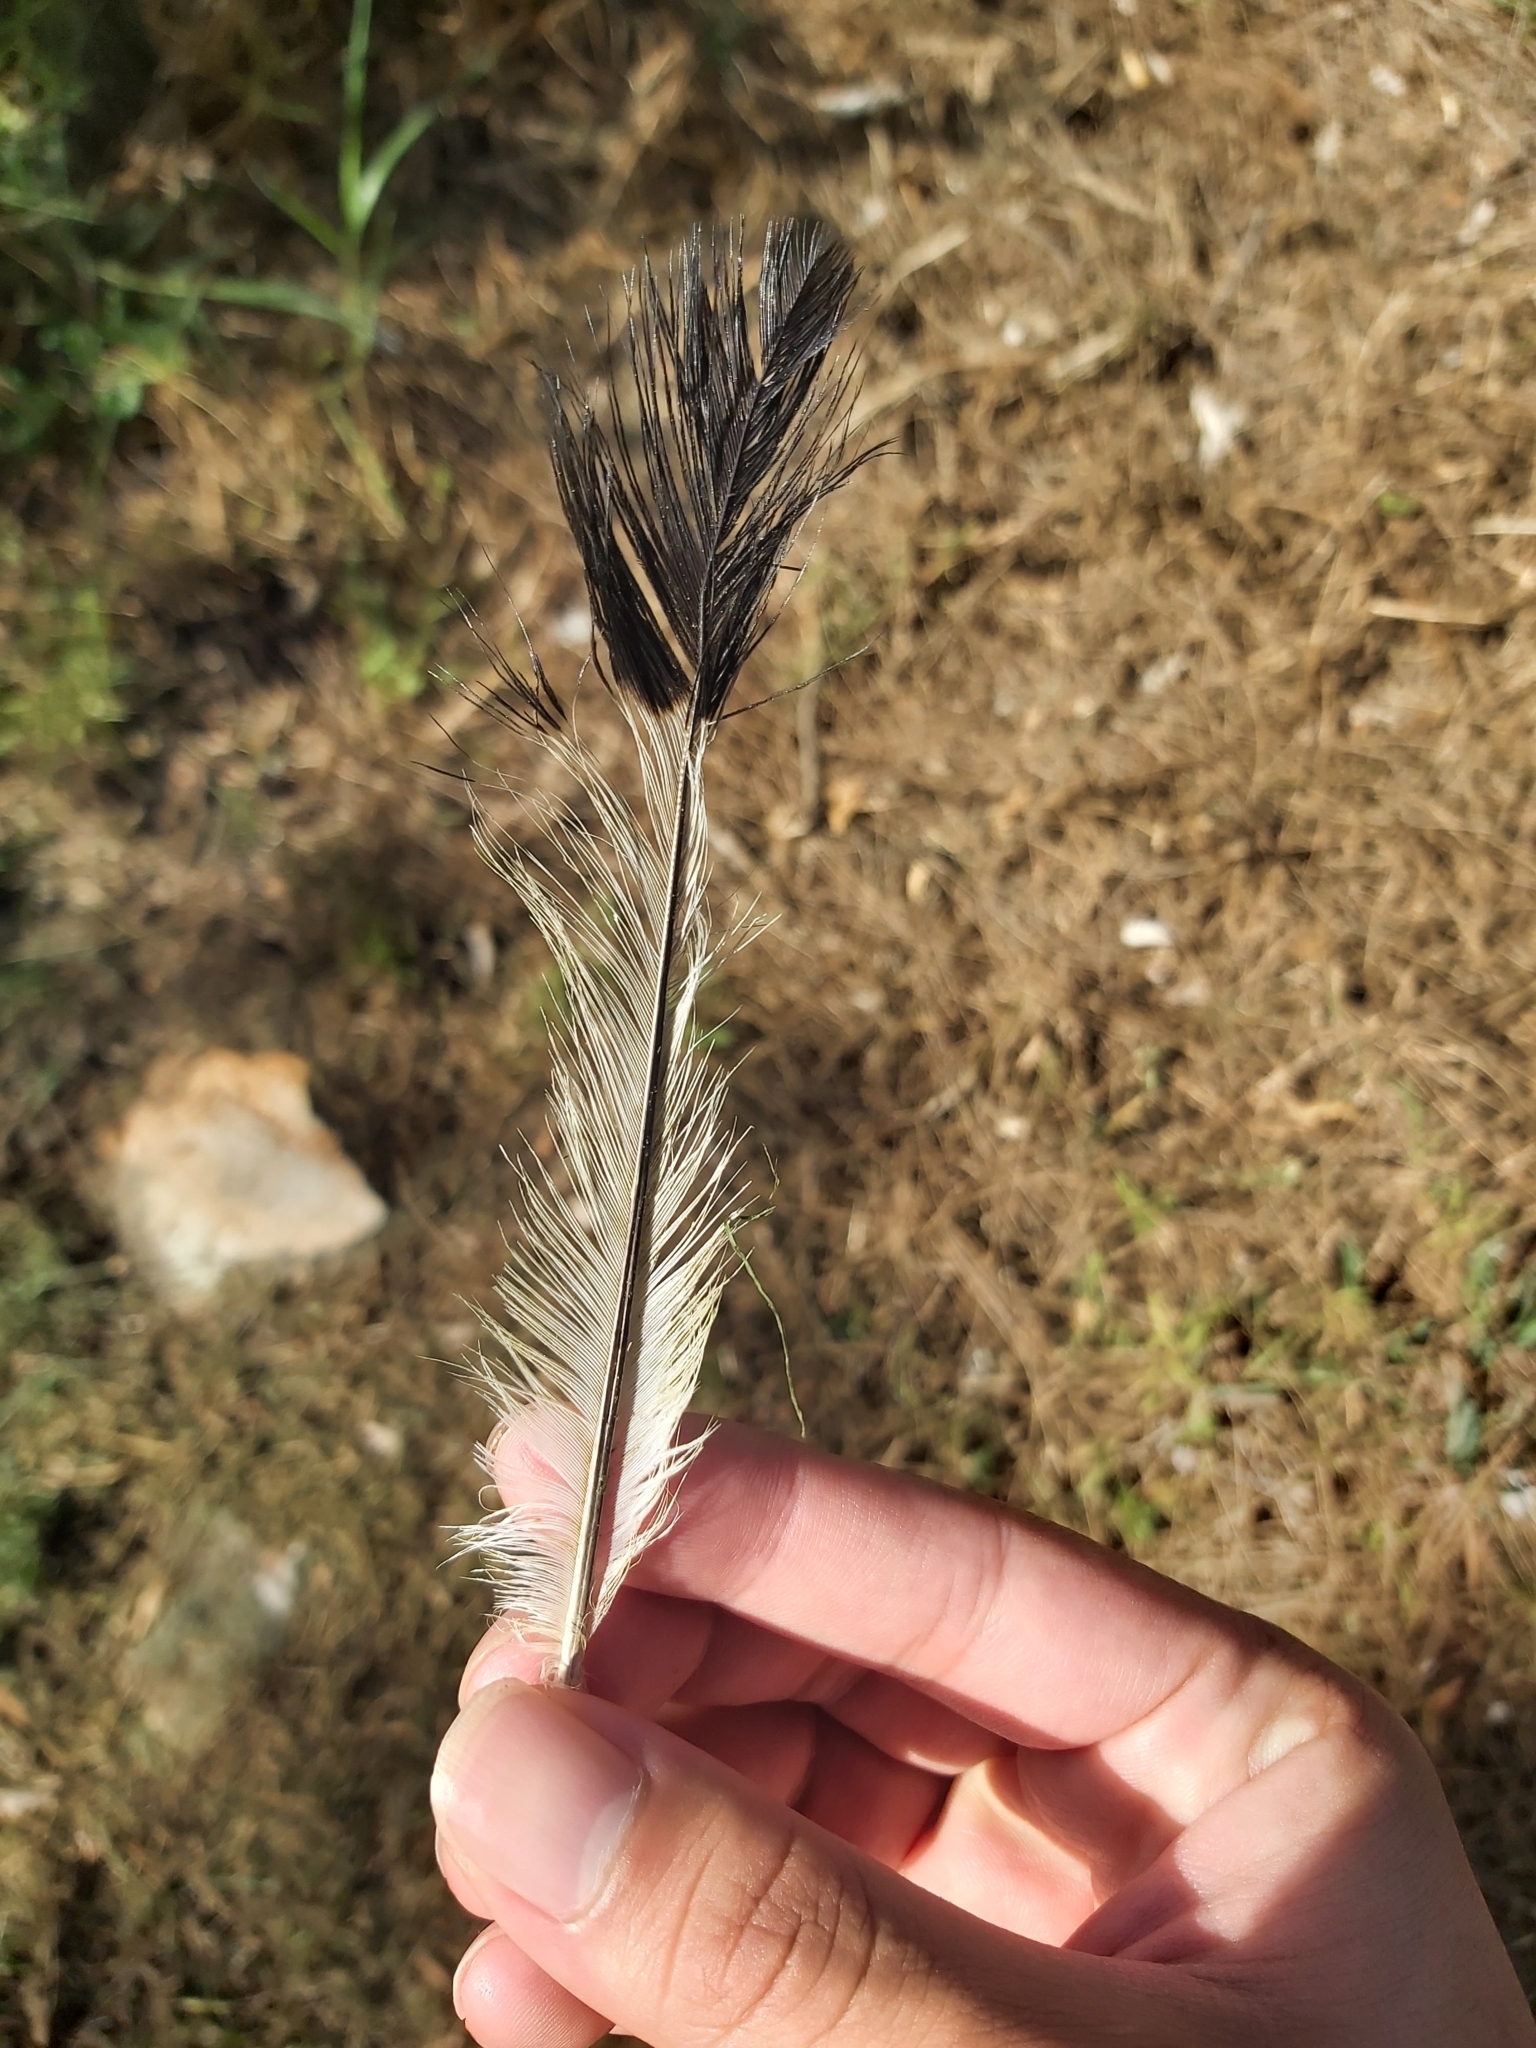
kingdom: Animalia
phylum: Chordata
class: Aves
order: Passeriformes
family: Cracticidae
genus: Gymnorhina
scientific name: Gymnorhina tibicen
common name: Australian magpie
